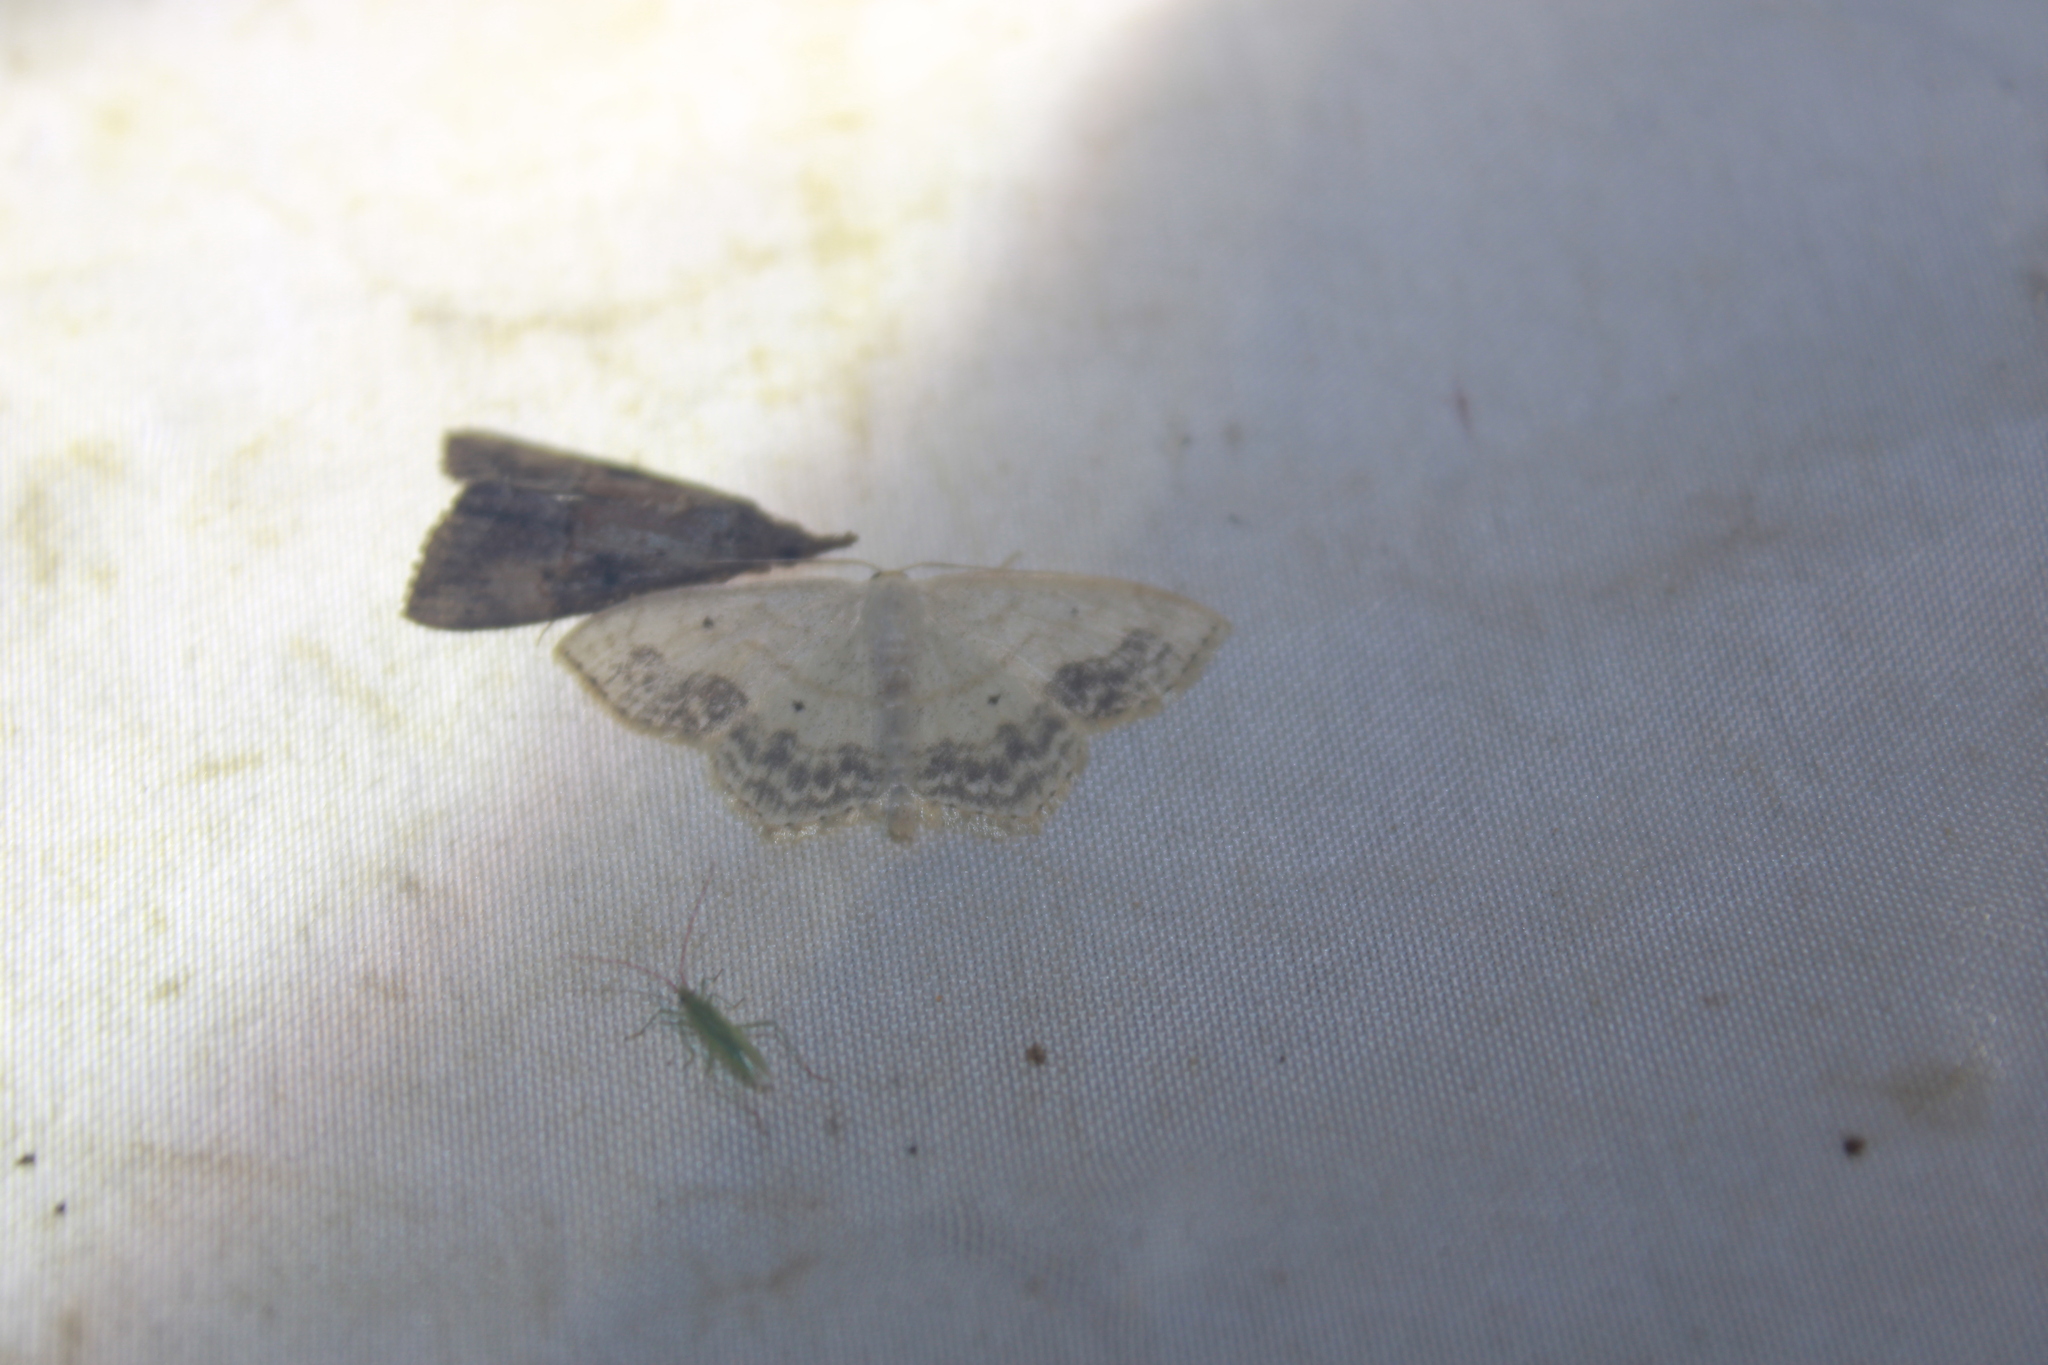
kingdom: Animalia
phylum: Arthropoda
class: Insecta
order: Lepidoptera
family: Geometridae
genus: Scopula
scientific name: Scopula limboundata
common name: Large lace border
